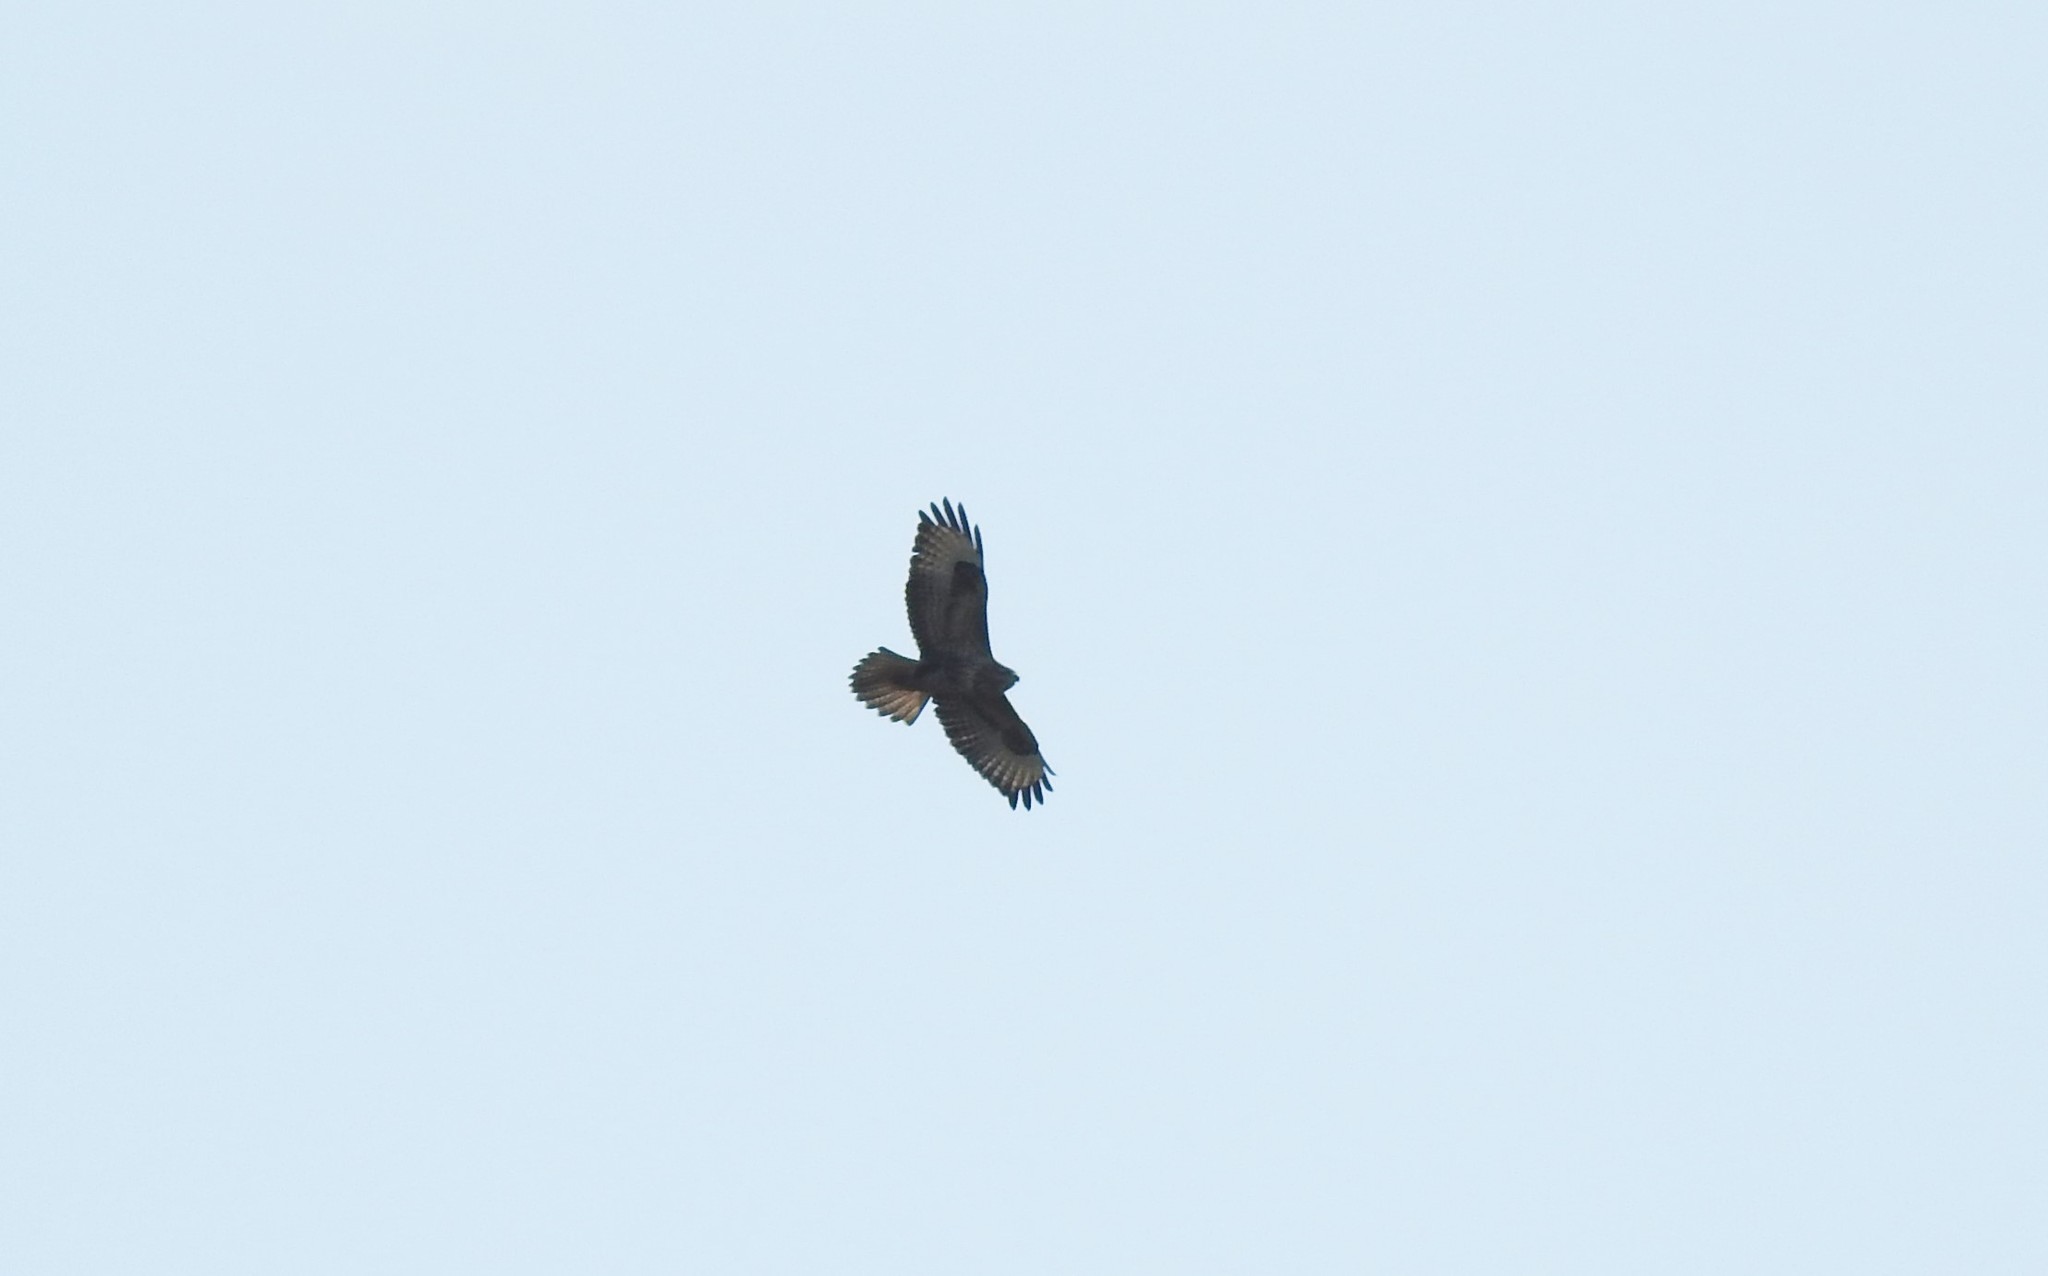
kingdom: Animalia
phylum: Chordata
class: Aves
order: Accipitriformes
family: Accipitridae
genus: Buteo
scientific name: Buteo buteo
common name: Common buzzard
